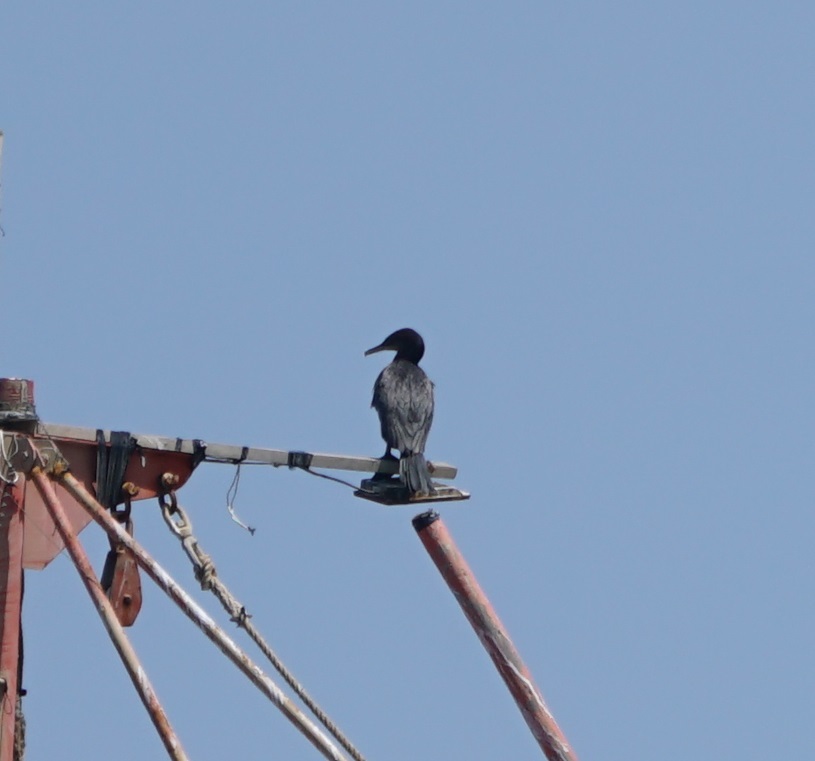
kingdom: Animalia
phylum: Chordata
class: Aves
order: Suliformes
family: Phalacrocoracidae
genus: Phalacrocorax
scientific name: Phalacrocorax brasilianus
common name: Neotropic cormorant
